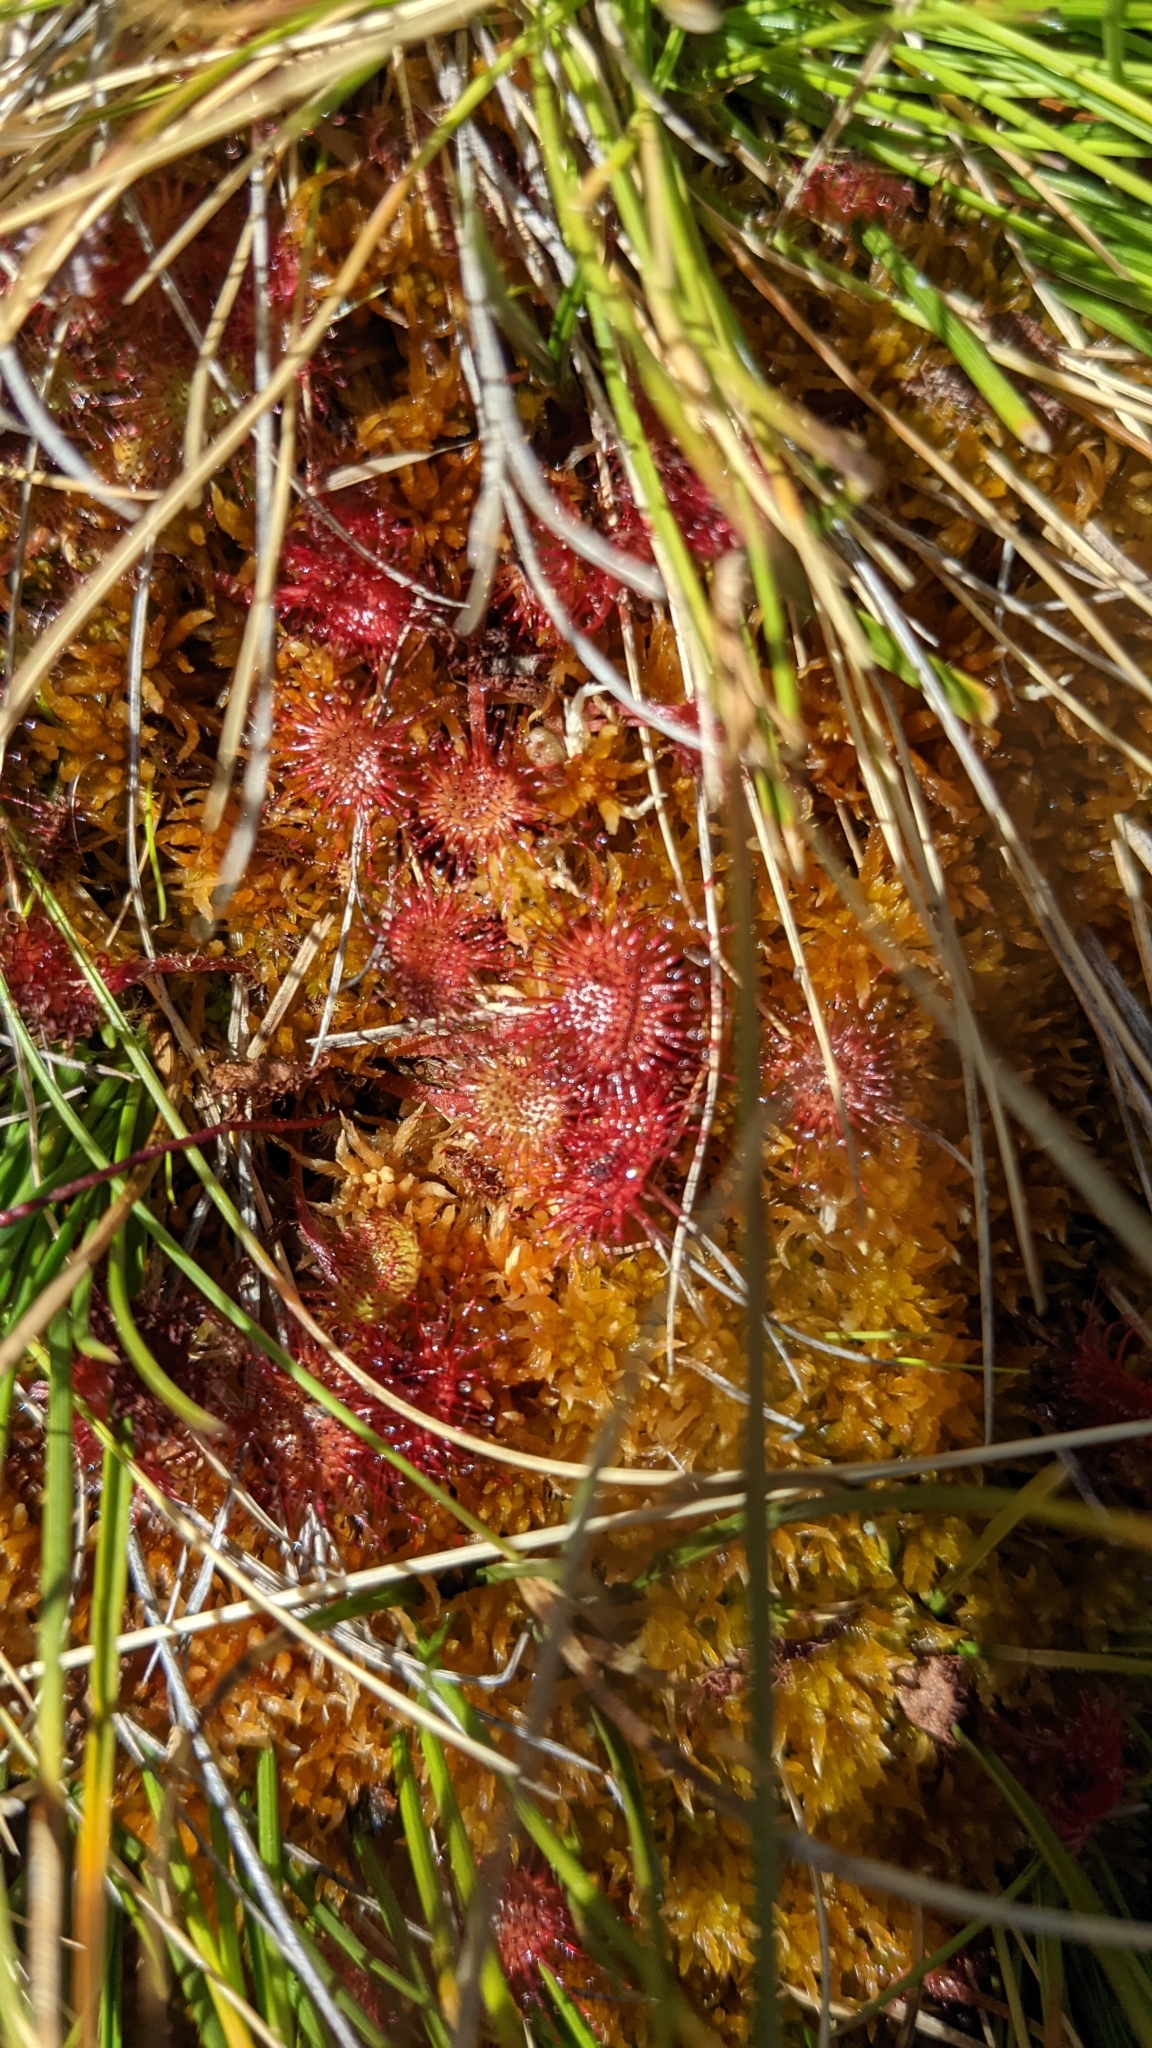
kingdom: Plantae
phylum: Tracheophyta
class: Magnoliopsida
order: Caryophyllales
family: Droseraceae
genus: Drosera
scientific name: Drosera rotundifolia
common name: Round-leaved sundew
